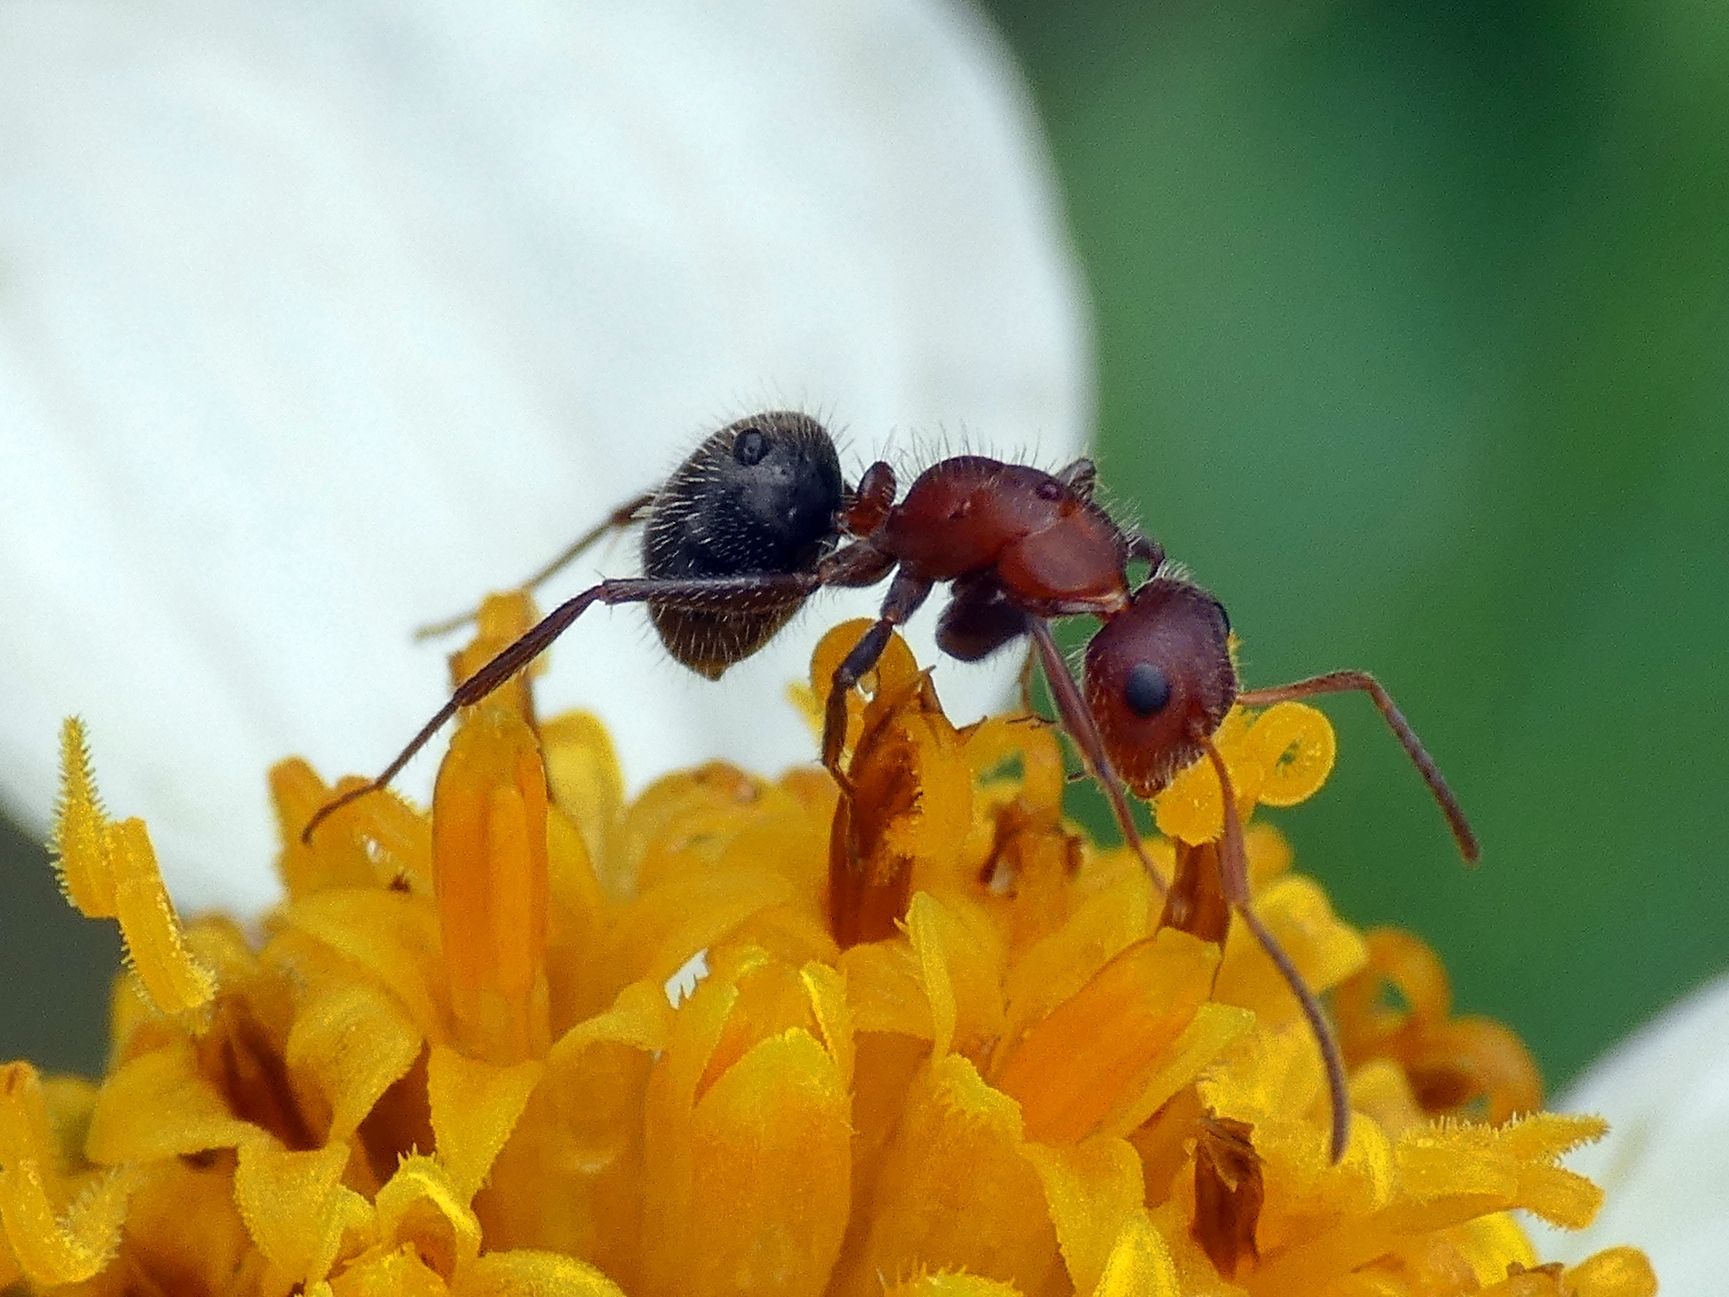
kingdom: Animalia
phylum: Arthropoda
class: Insecta
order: Hymenoptera
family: Formicidae
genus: Camponotus
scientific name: Camponotus planatus
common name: Compact carpenter ant
